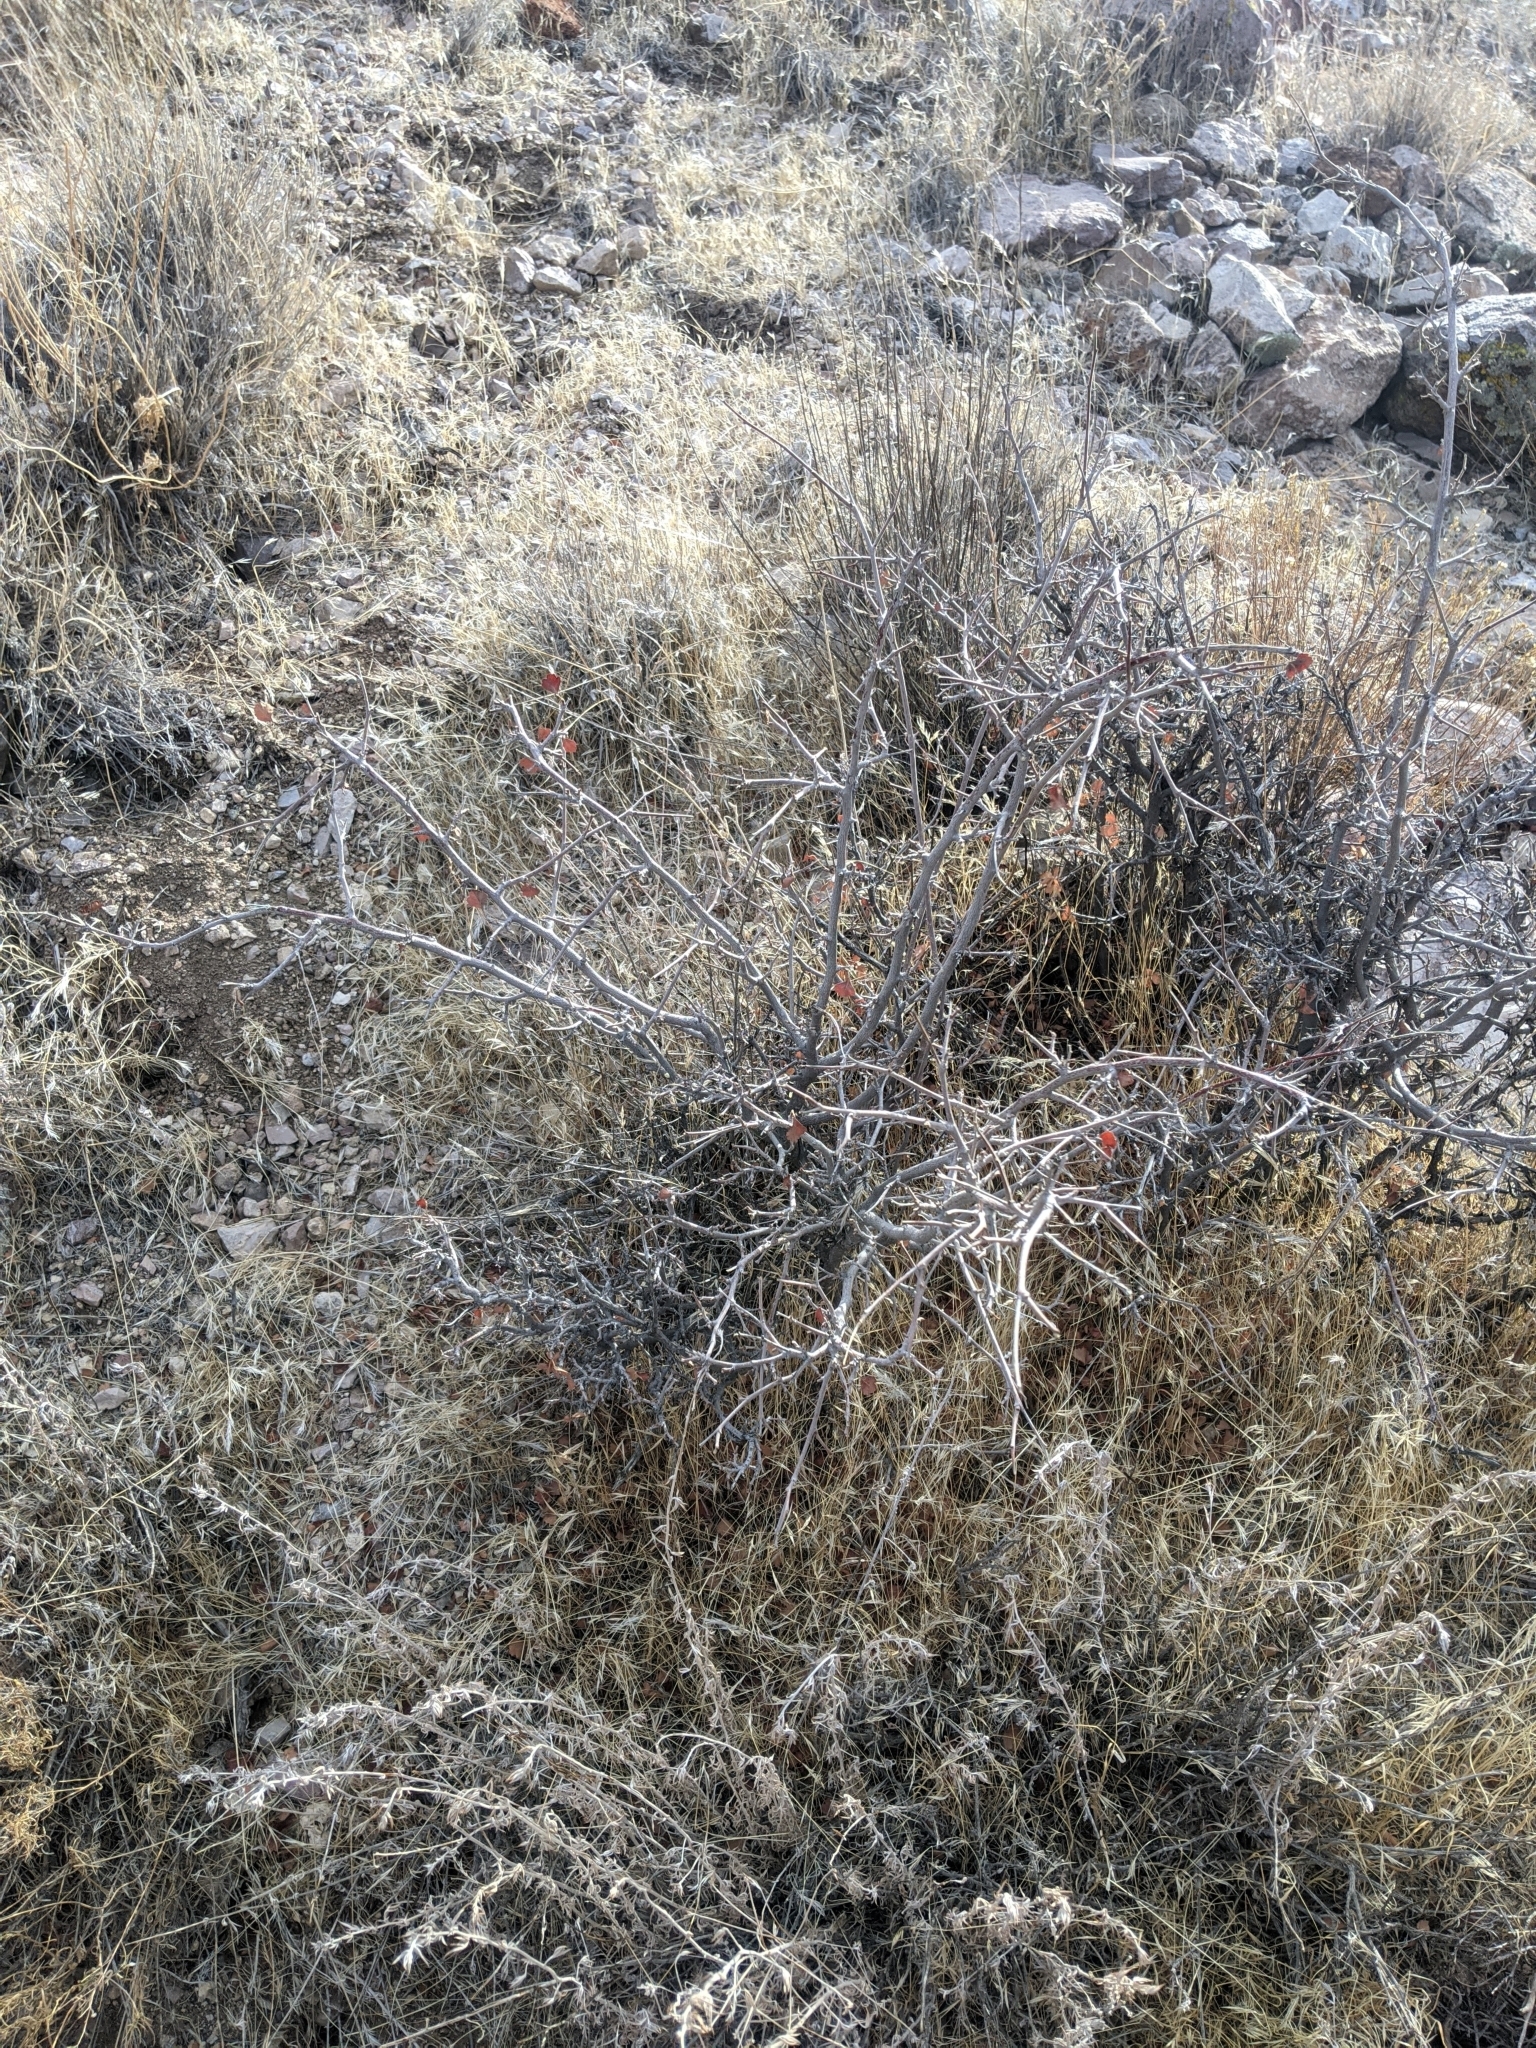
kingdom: Plantae
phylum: Tracheophyta
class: Magnoliopsida
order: Sapindales
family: Anacardiaceae
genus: Rhus
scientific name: Rhus aromatica
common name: Aromatic sumac
